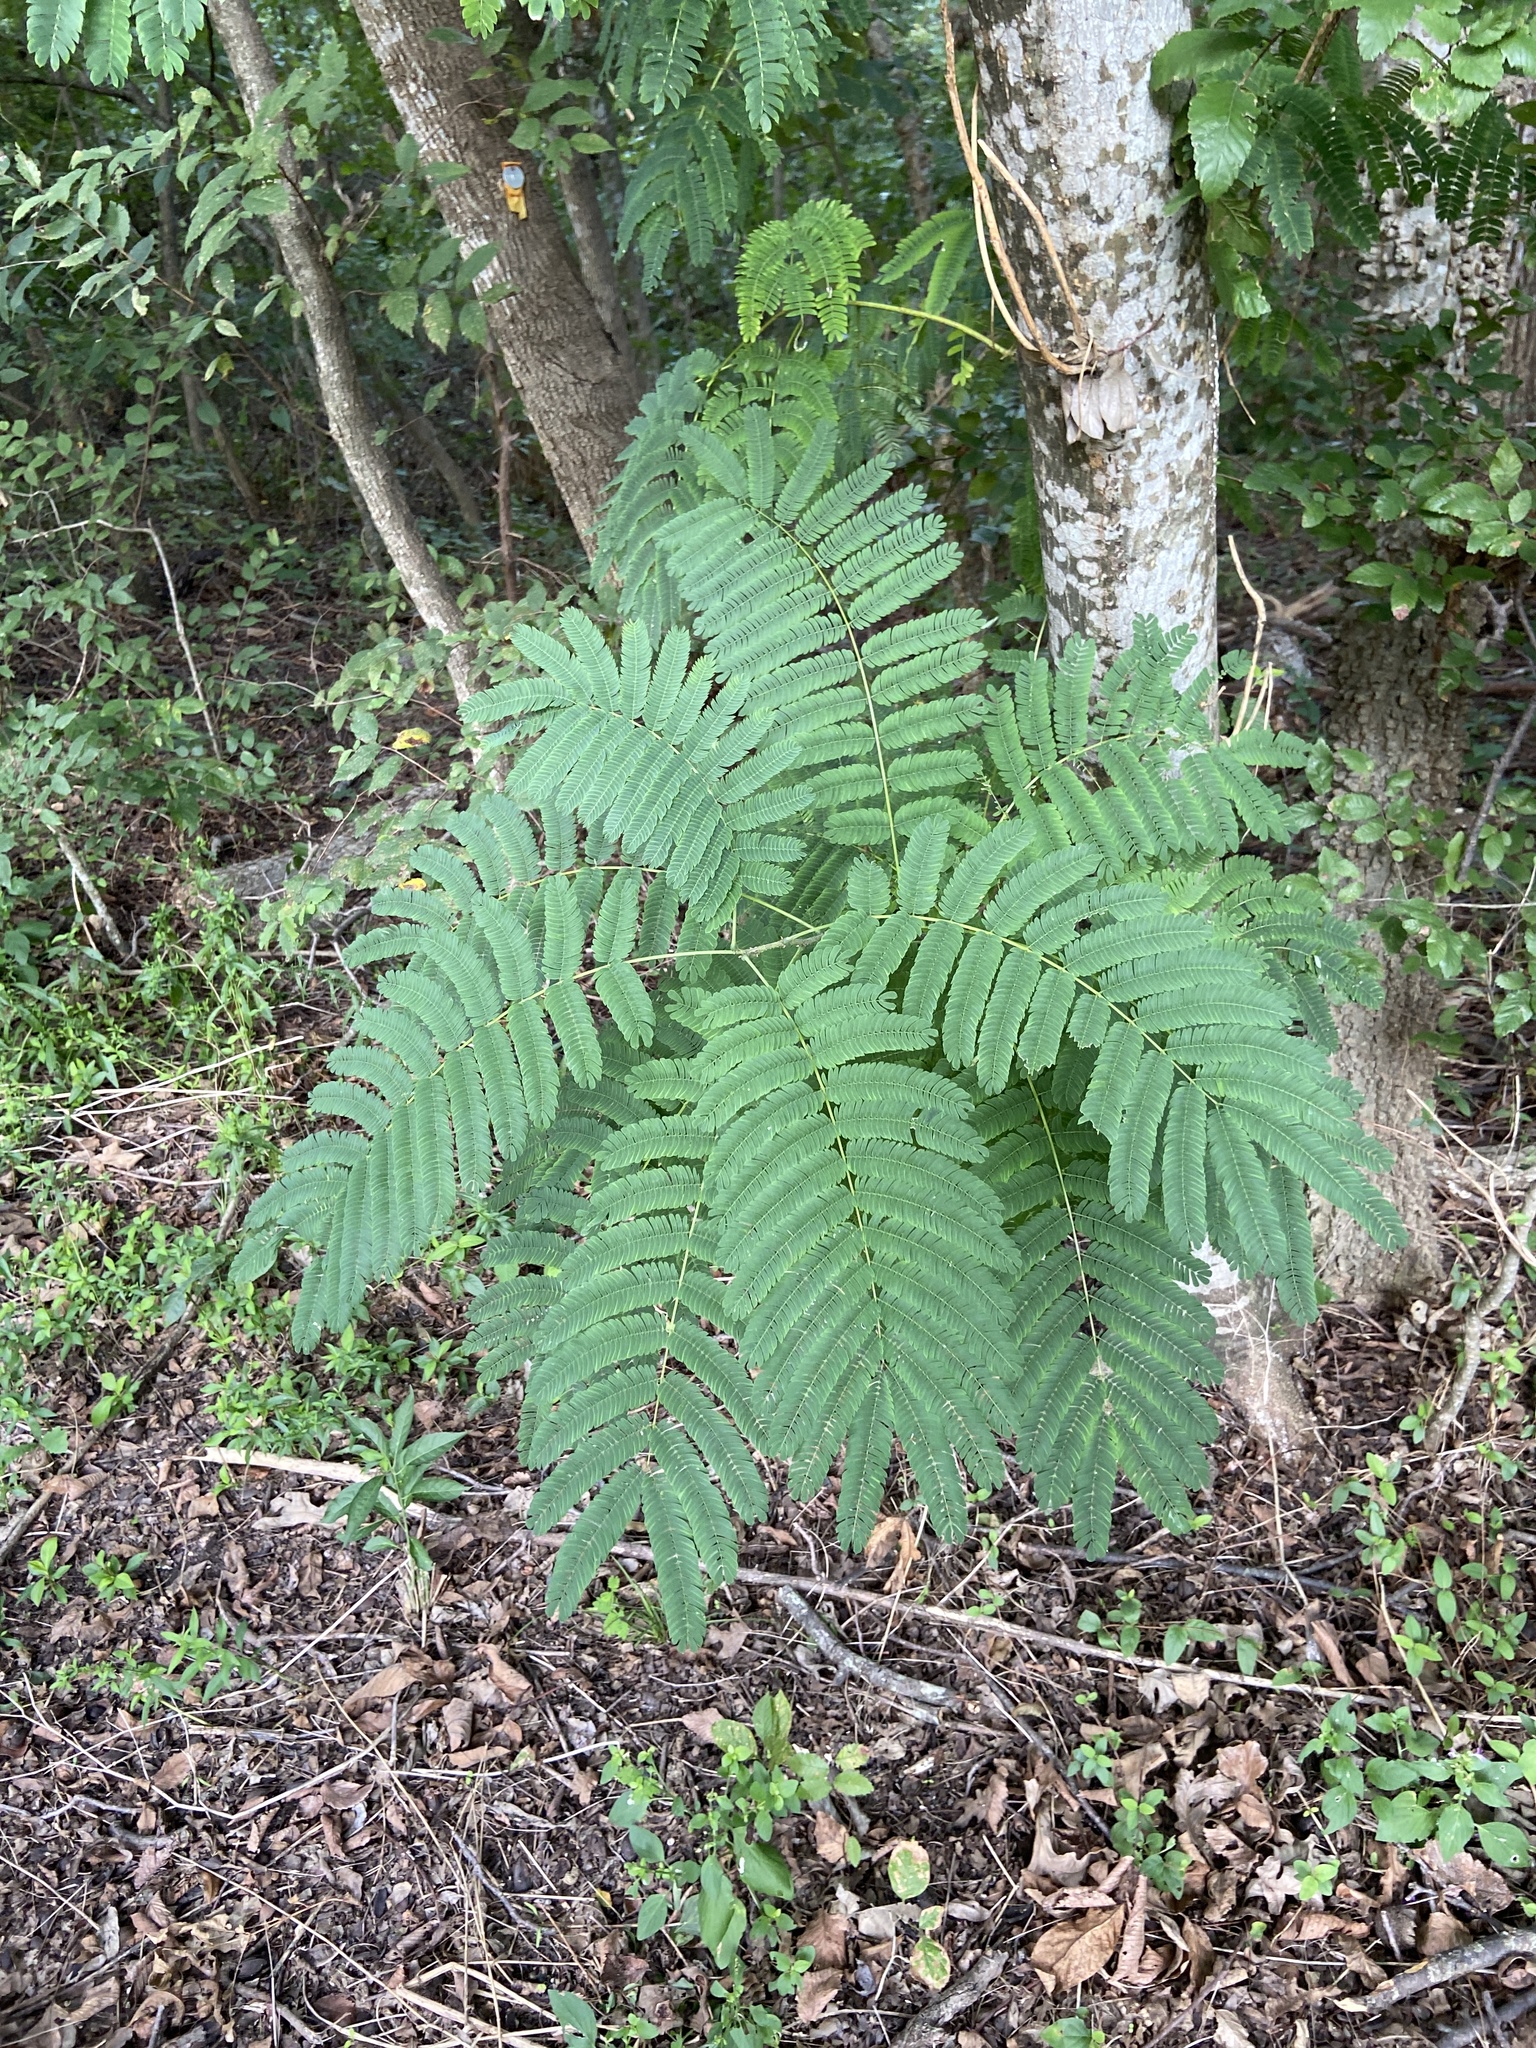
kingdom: Plantae
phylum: Tracheophyta
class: Magnoliopsida
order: Fabales
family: Fabaceae
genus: Albizia
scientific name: Albizia julibrissin
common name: Silktree
